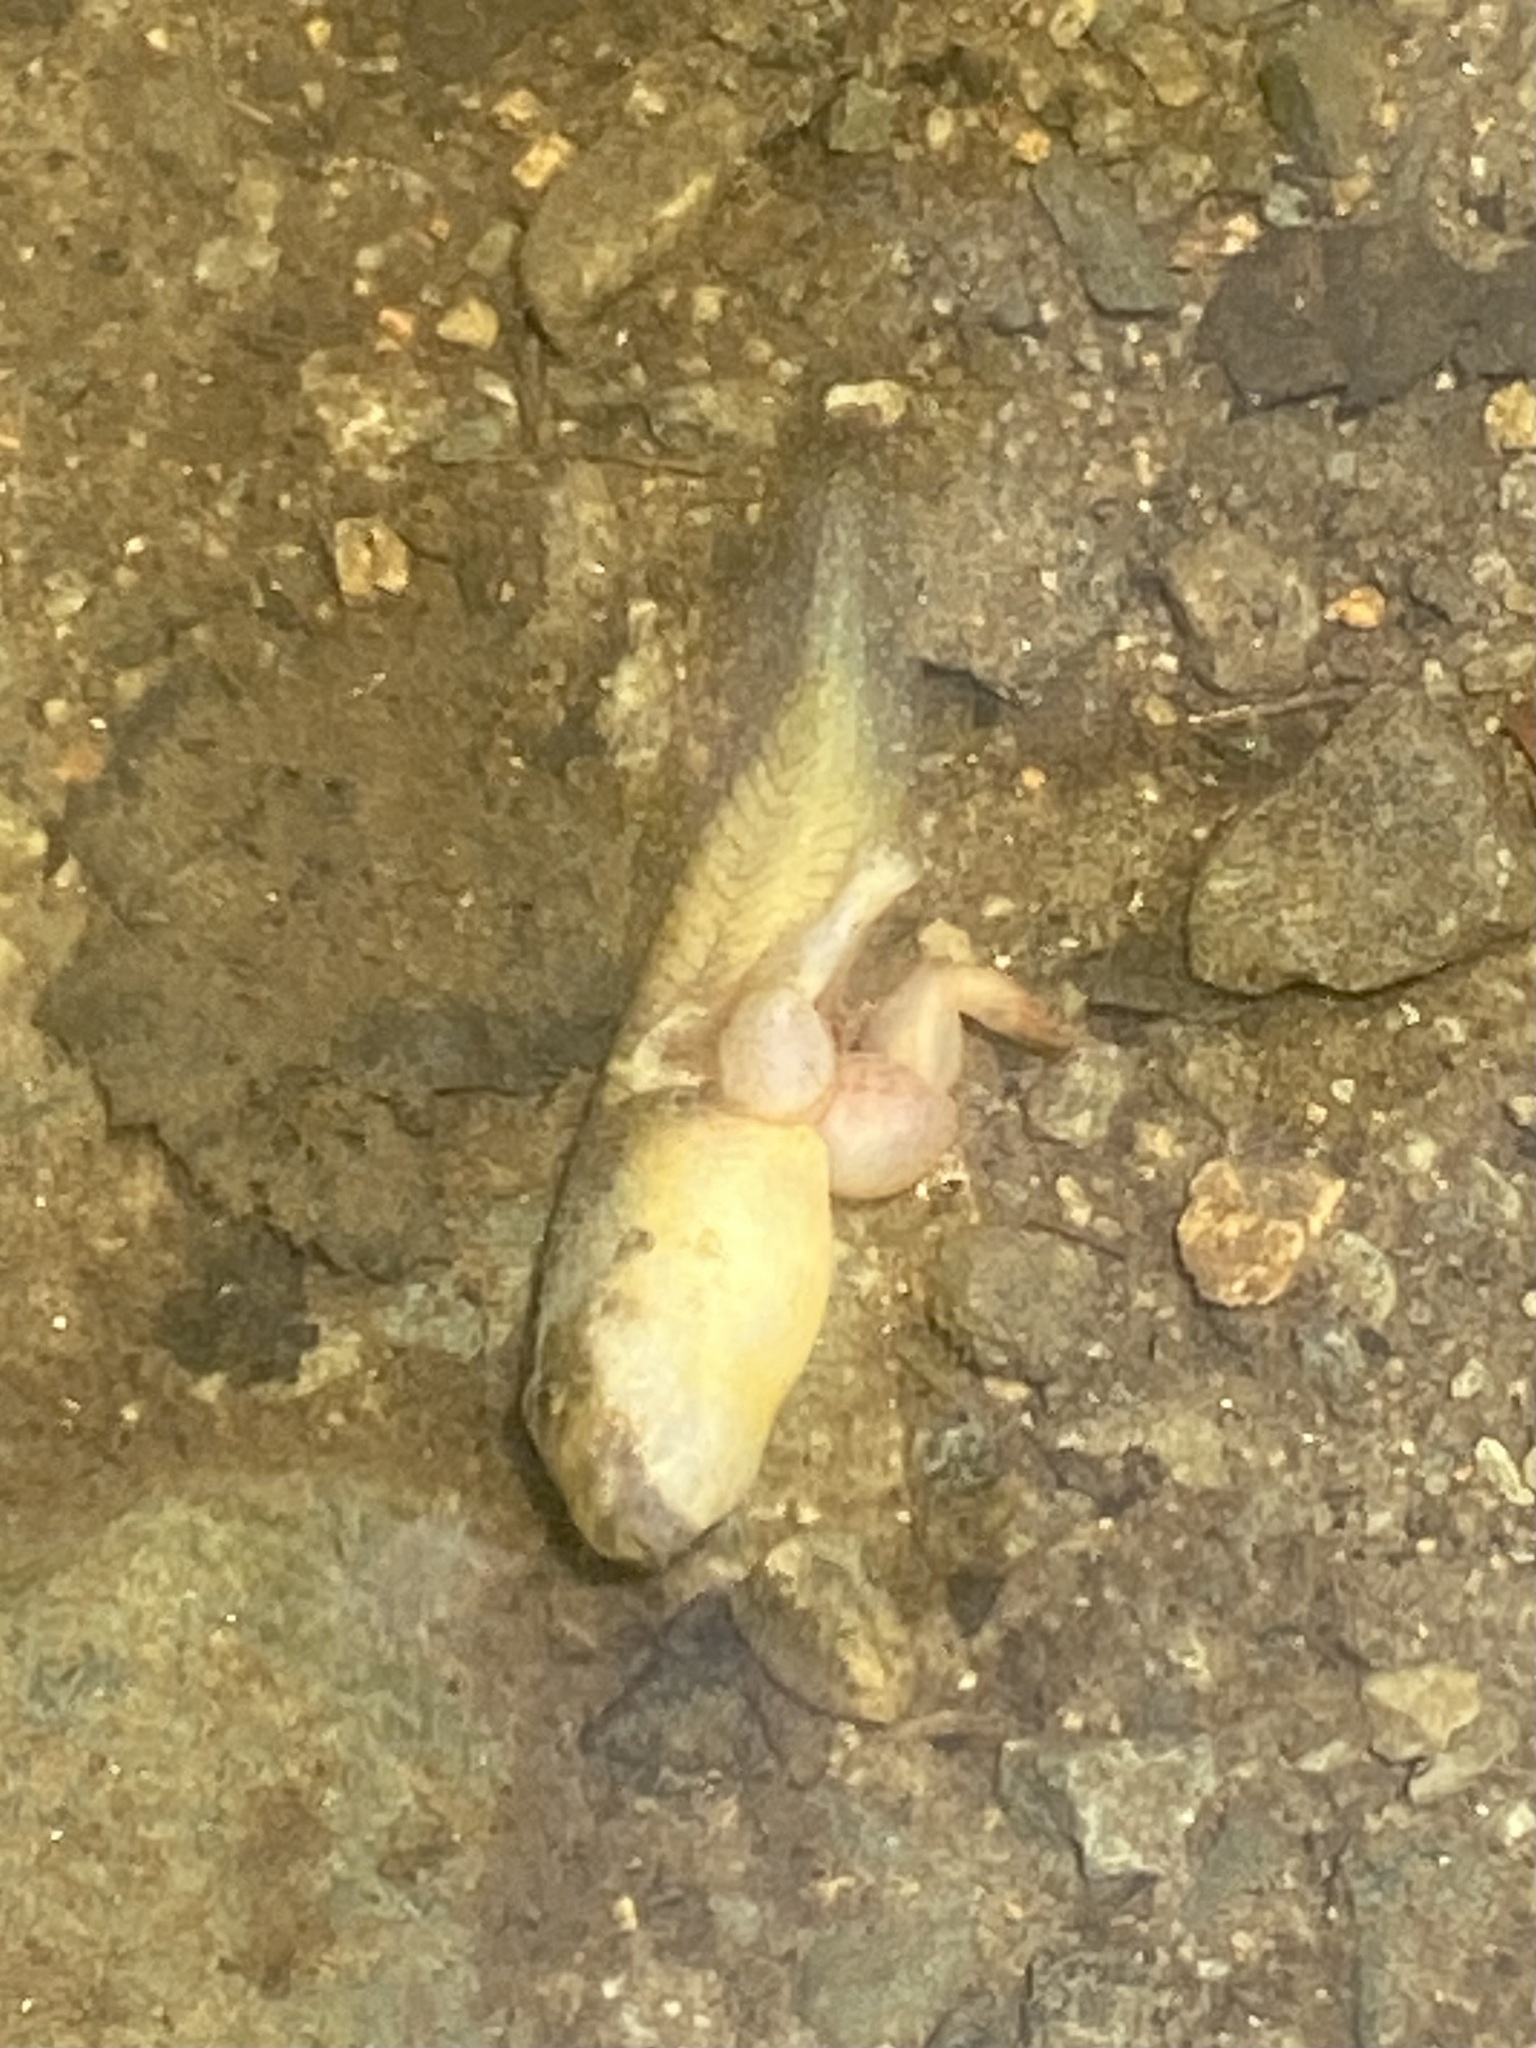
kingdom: Animalia
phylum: Chordata
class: Amphibia
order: Anura
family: Ranidae
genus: Lithobates
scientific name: Lithobates catesbeianus
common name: American bullfrog
